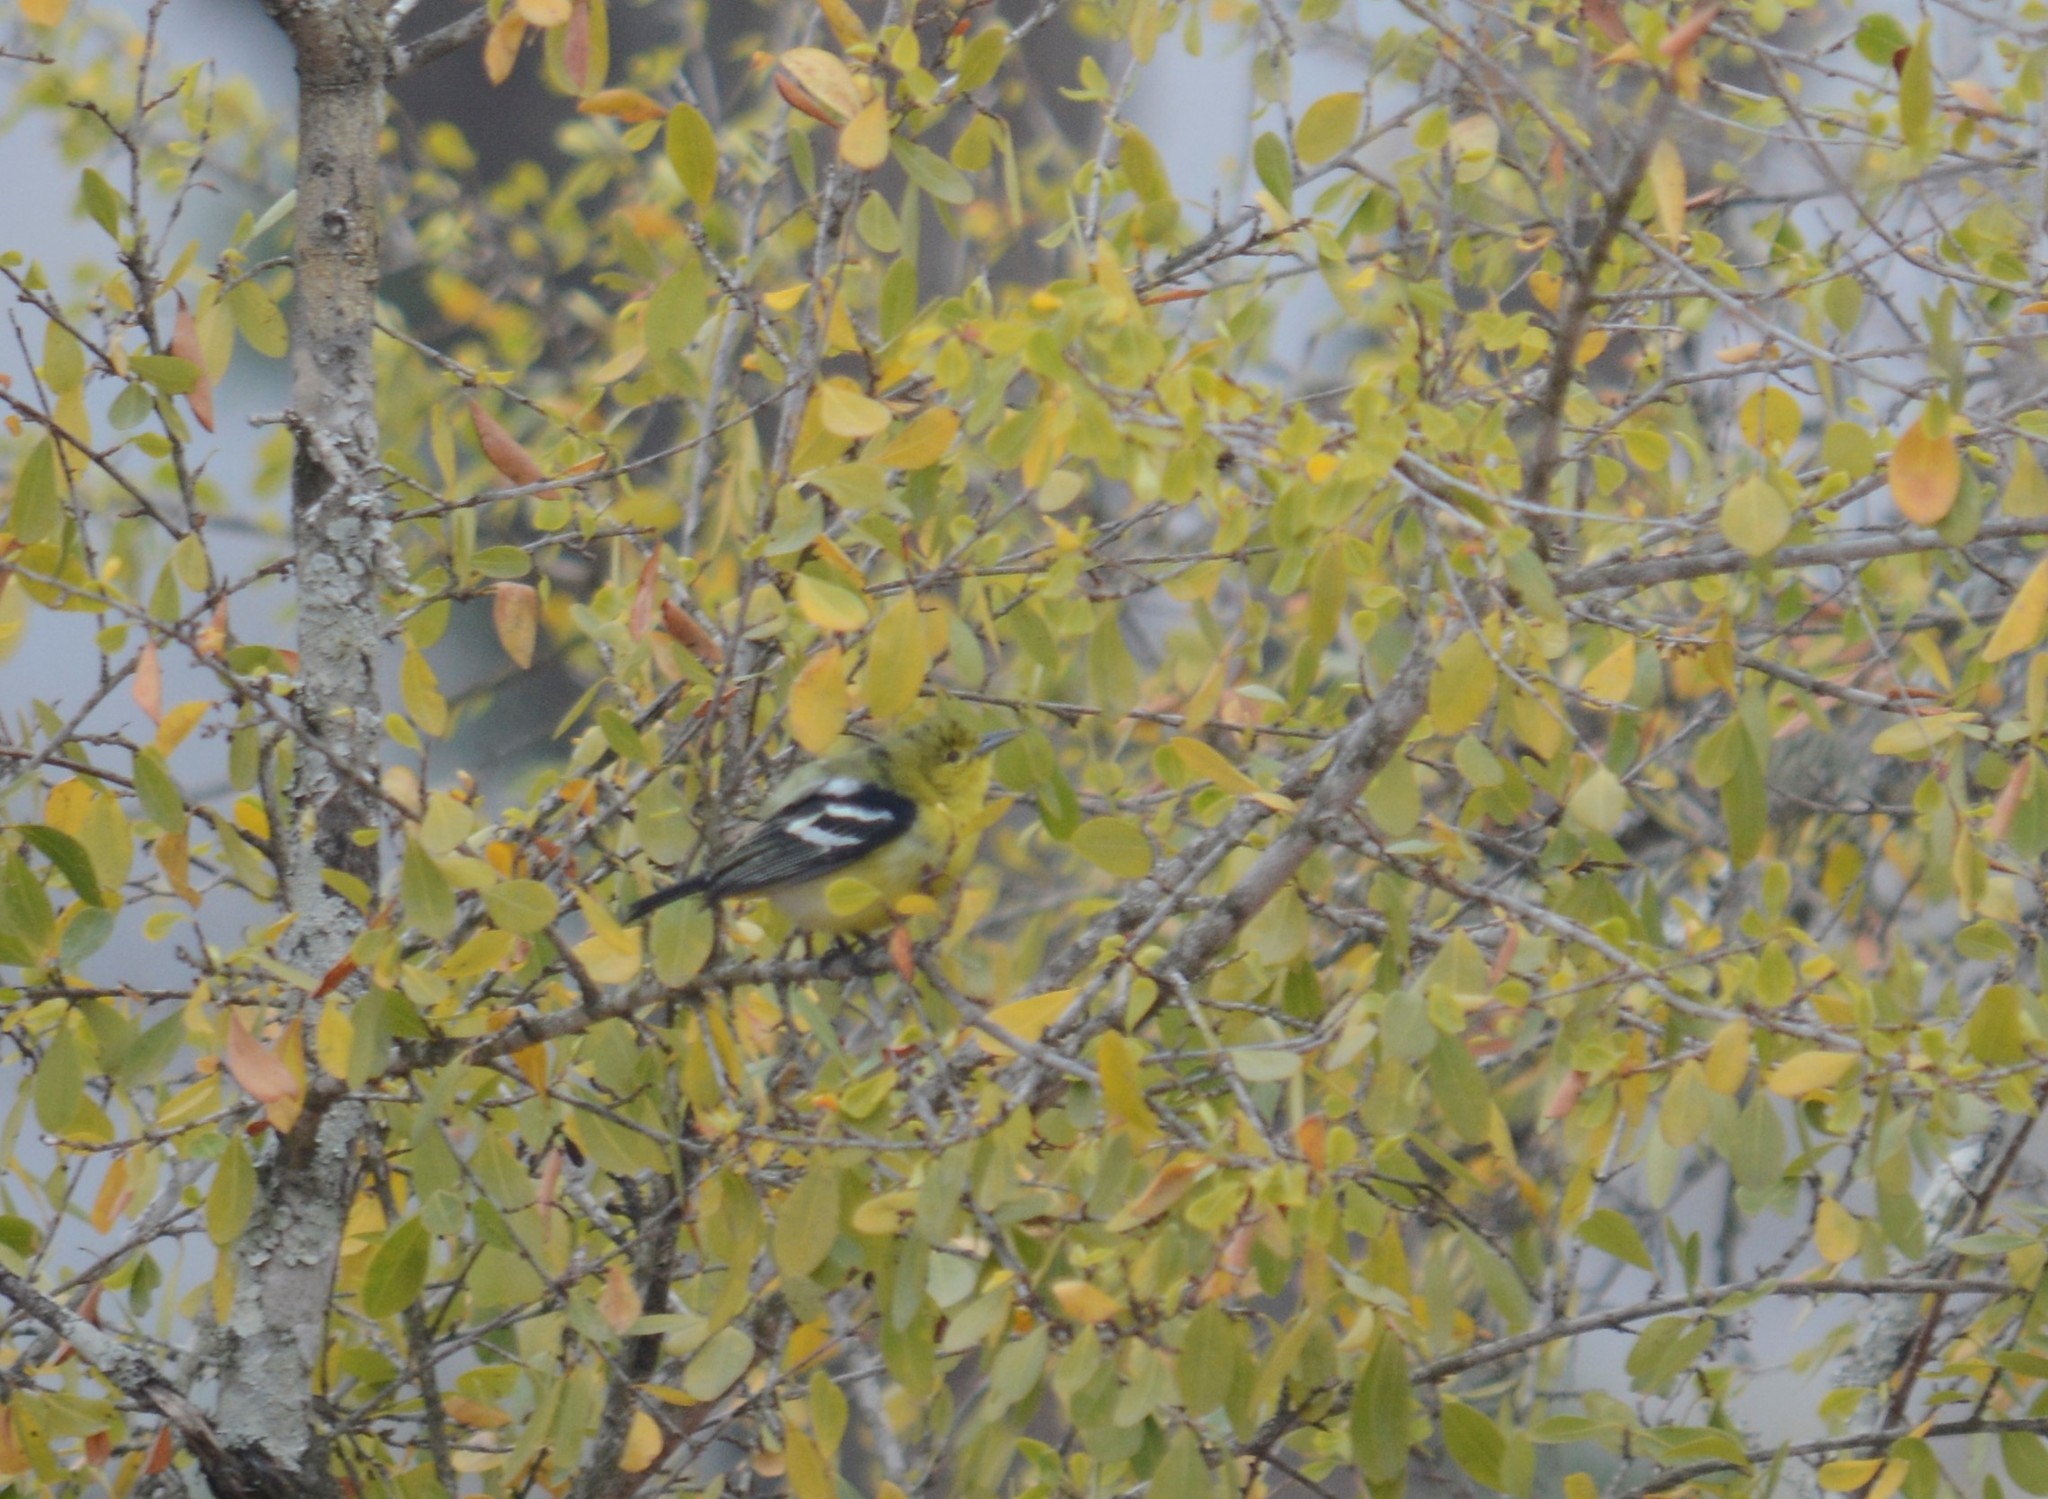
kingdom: Animalia
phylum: Chordata
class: Aves
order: Passeriformes
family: Aegithinidae
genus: Aegithina
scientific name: Aegithina tiphia
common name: Common iora
